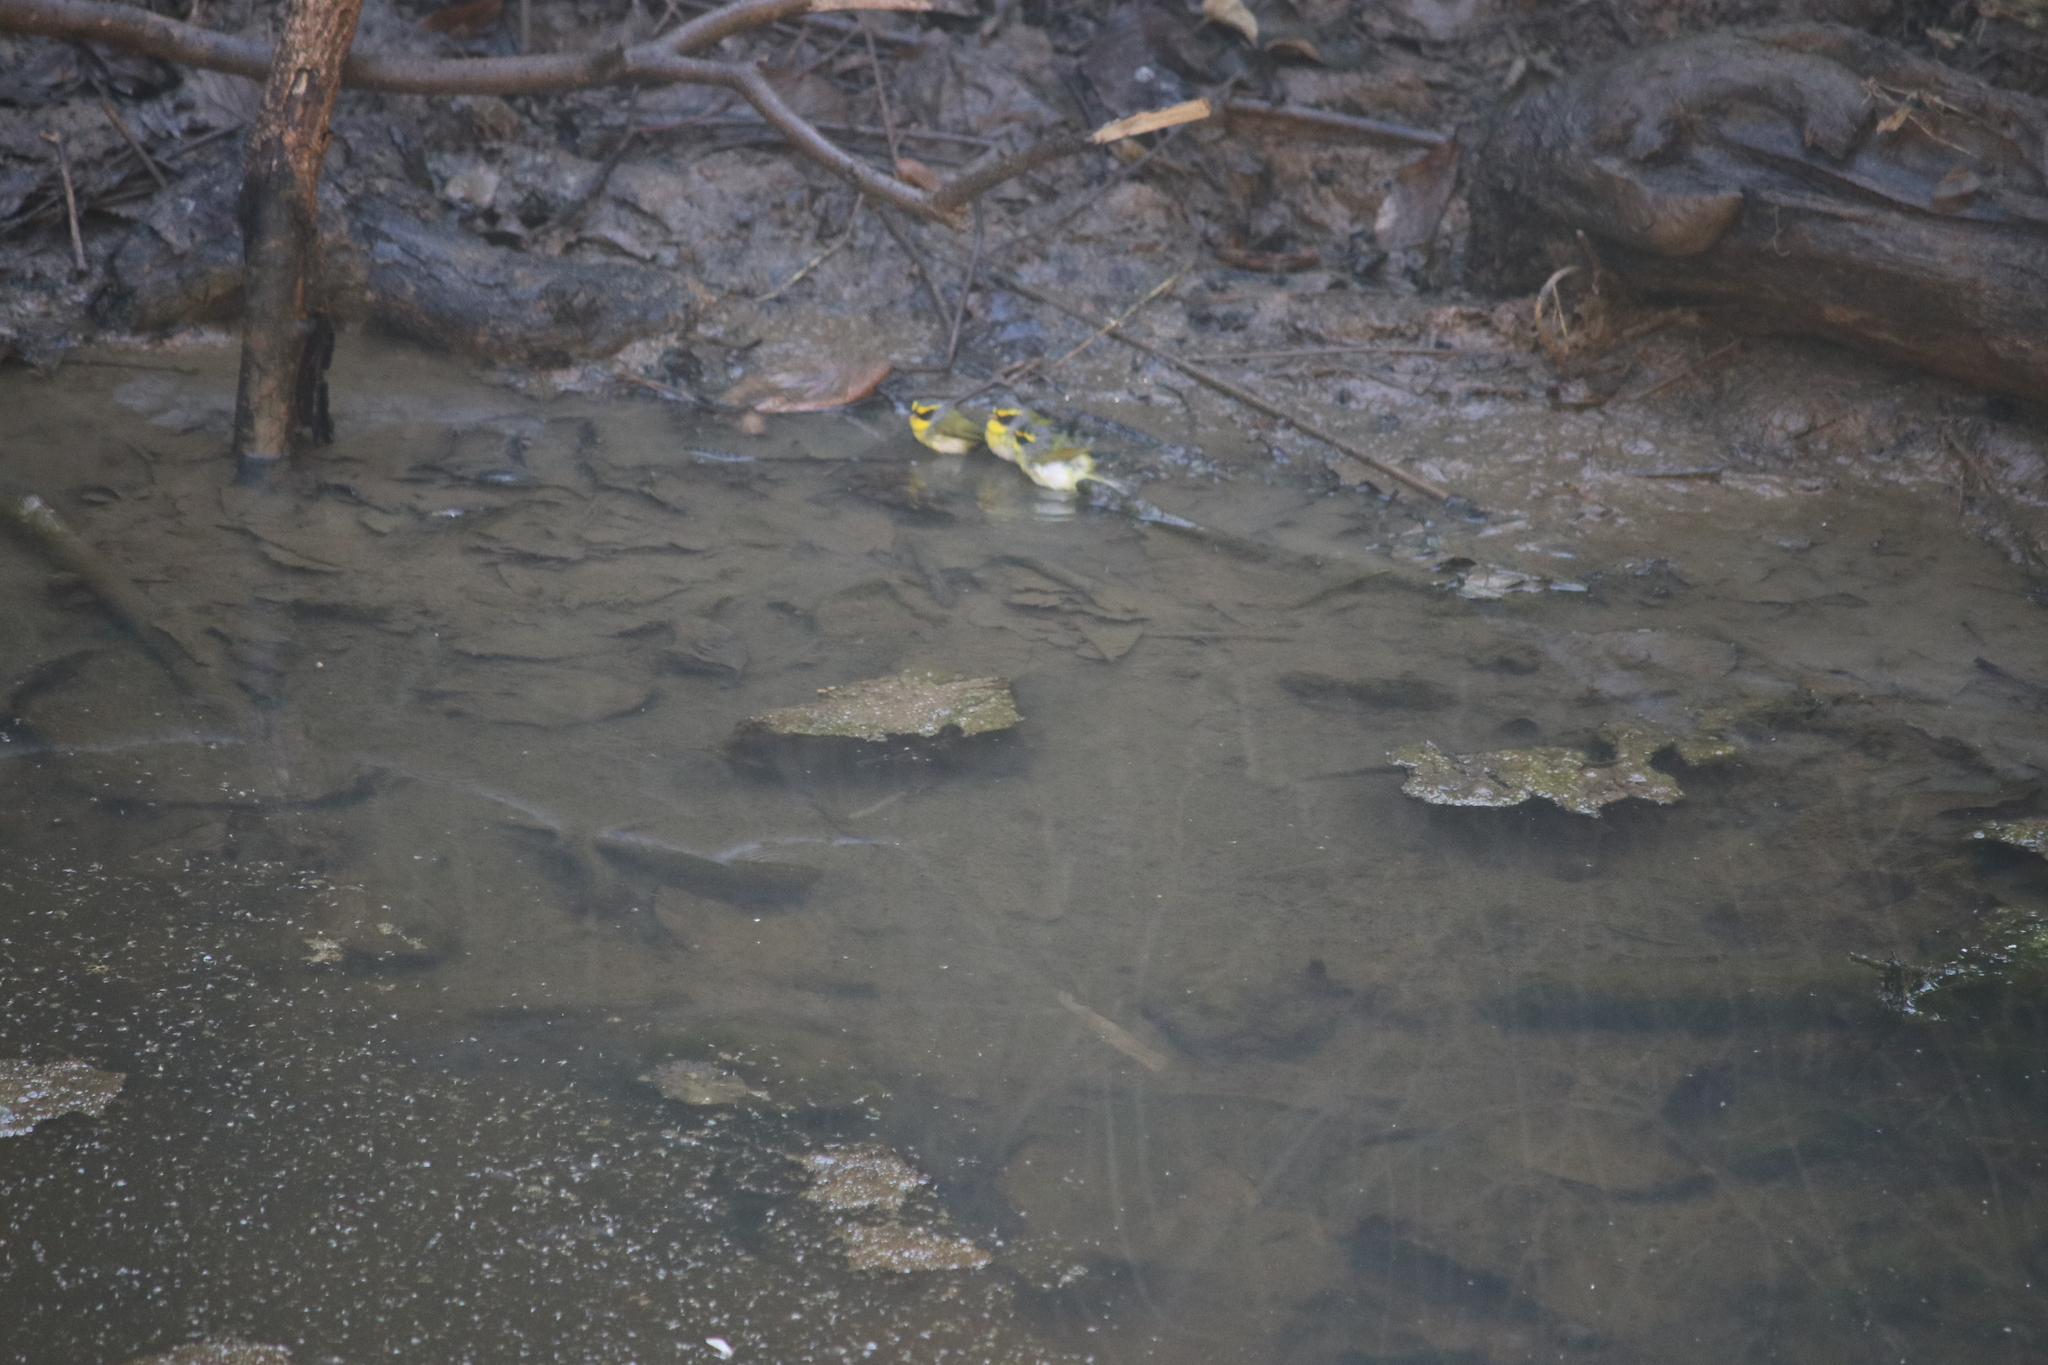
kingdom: Animalia
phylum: Chordata
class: Aves
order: Passeriformes
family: Cettiidae
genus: Abroscopus
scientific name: Abroscopus schisticeps
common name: Black-faced warbler
